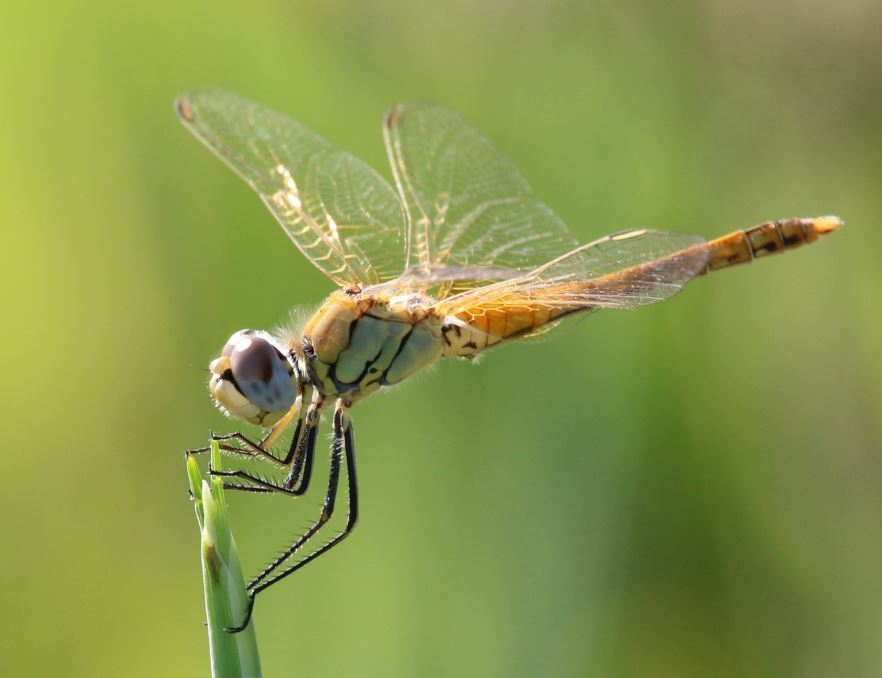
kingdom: Animalia
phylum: Arthropoda
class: Insecta
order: Odonata
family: Libellulidae
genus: Sympetrum
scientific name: Sympetrum fonscolombii
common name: Red-veined darter
